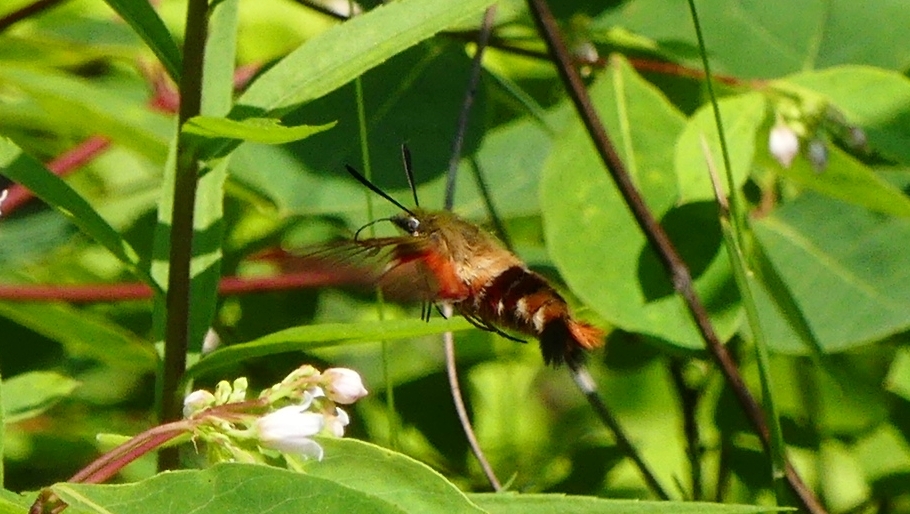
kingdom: Animalia
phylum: Arthropoda
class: Insecta
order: Lepidoptera
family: Sphingidae
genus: Hemaris
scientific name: Hemaris thysbe
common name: Common clear-wing
